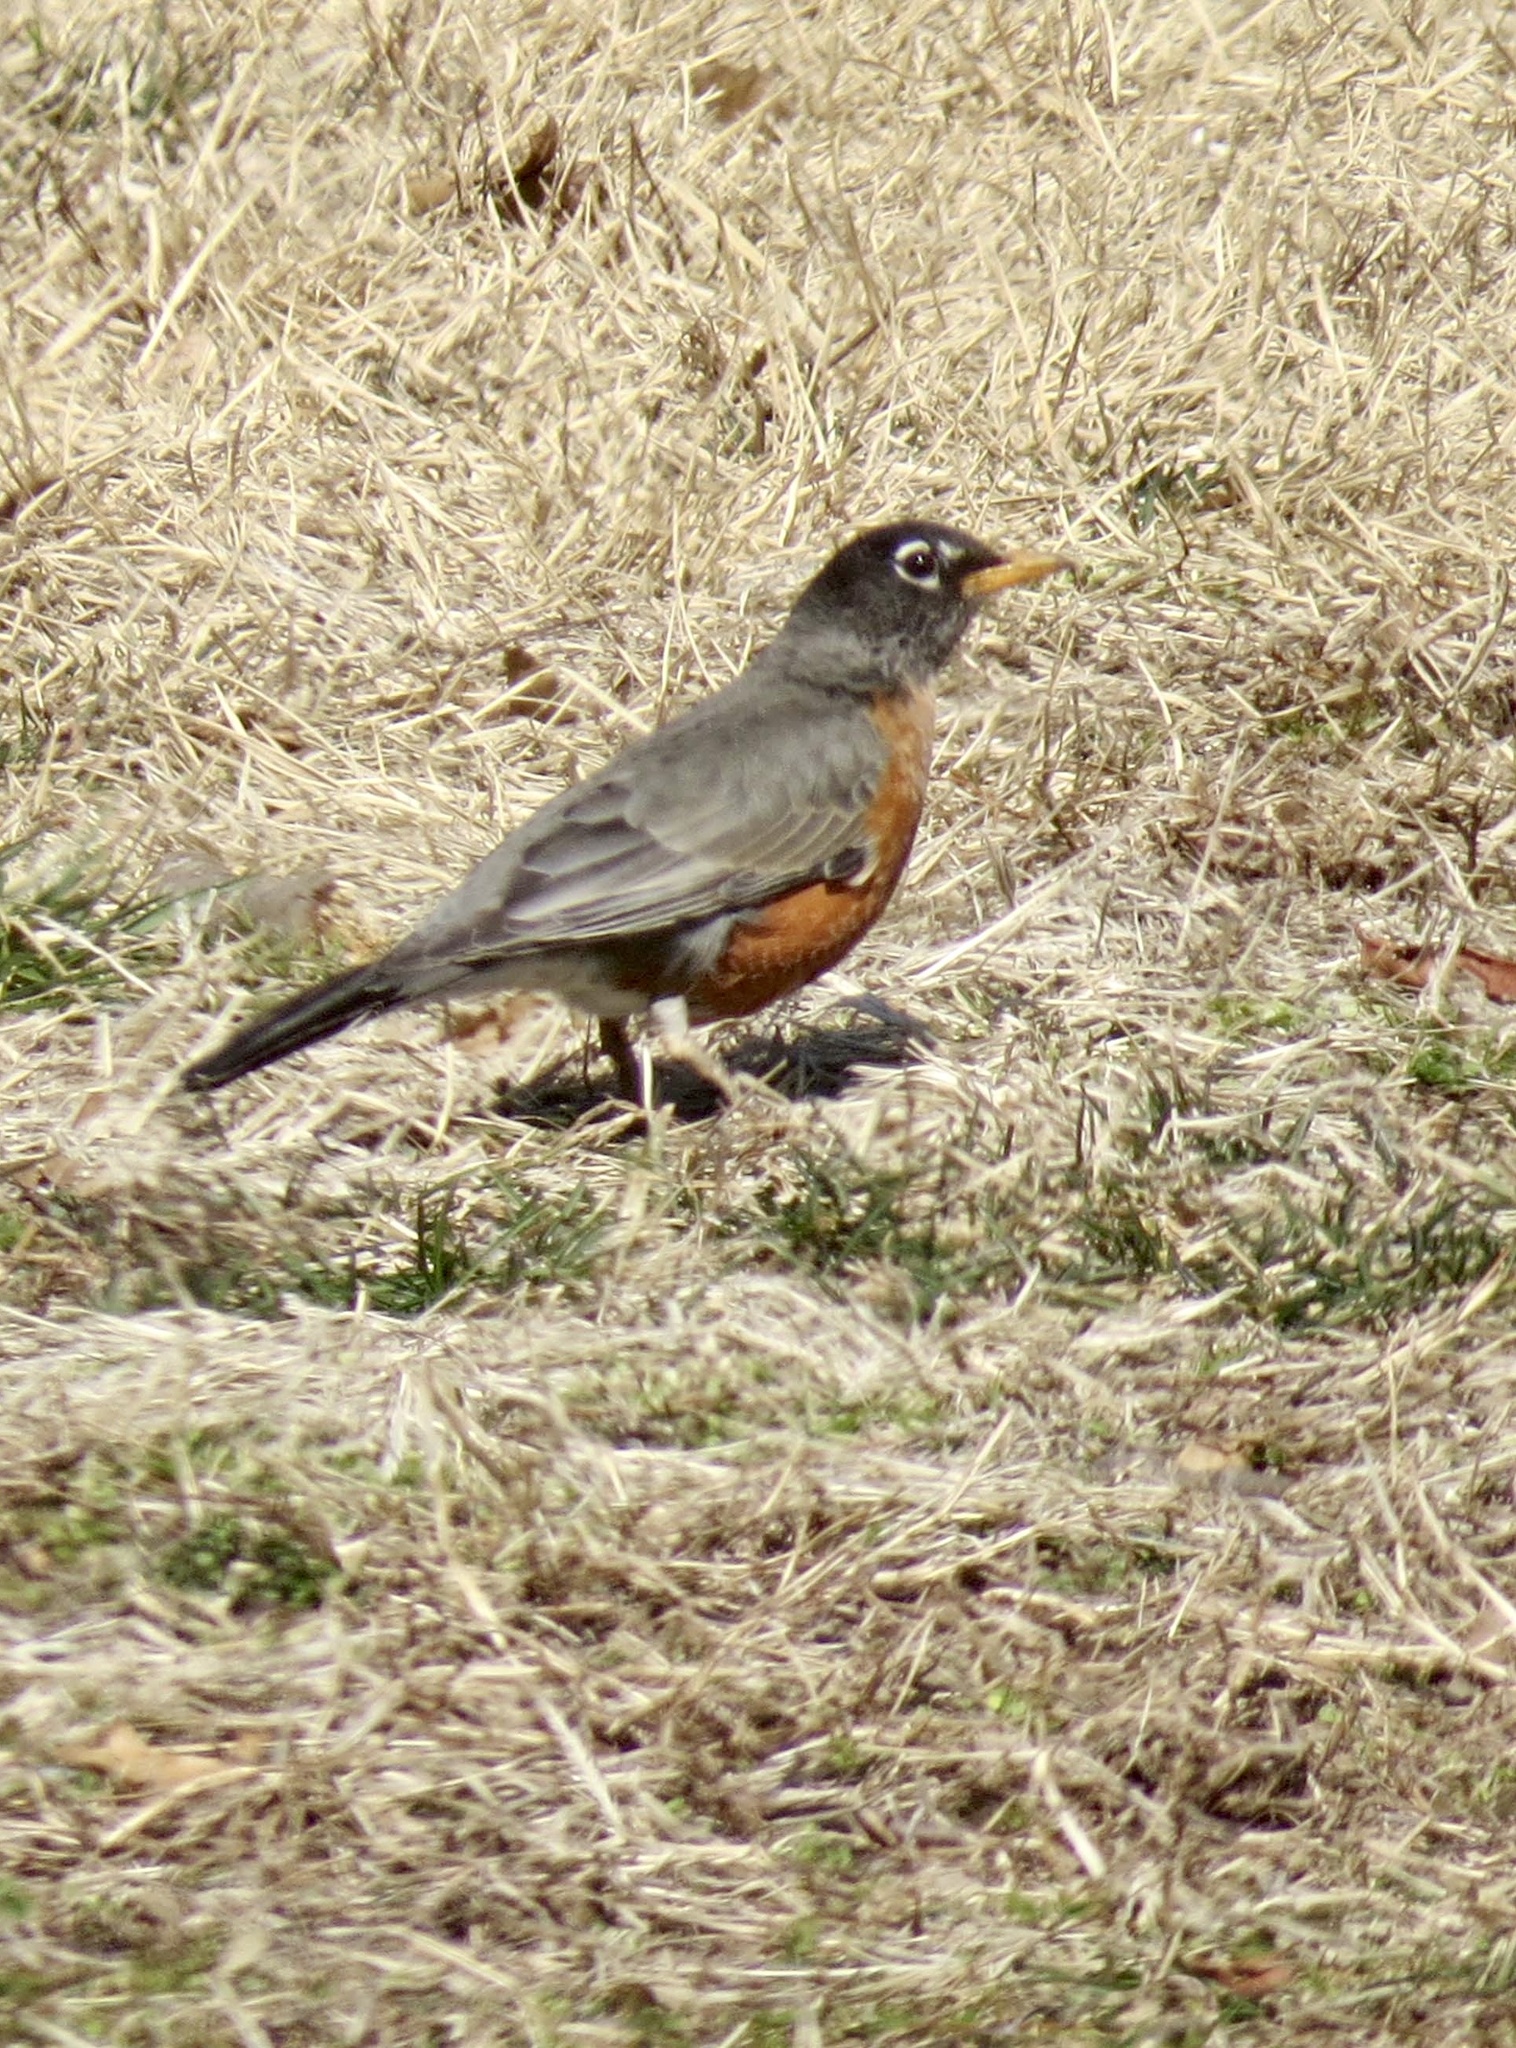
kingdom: Animalia
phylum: Chordata
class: Aves
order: Passeriformes
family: Turdidae
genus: Turdus
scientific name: Turdus migratorius
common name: American robin
